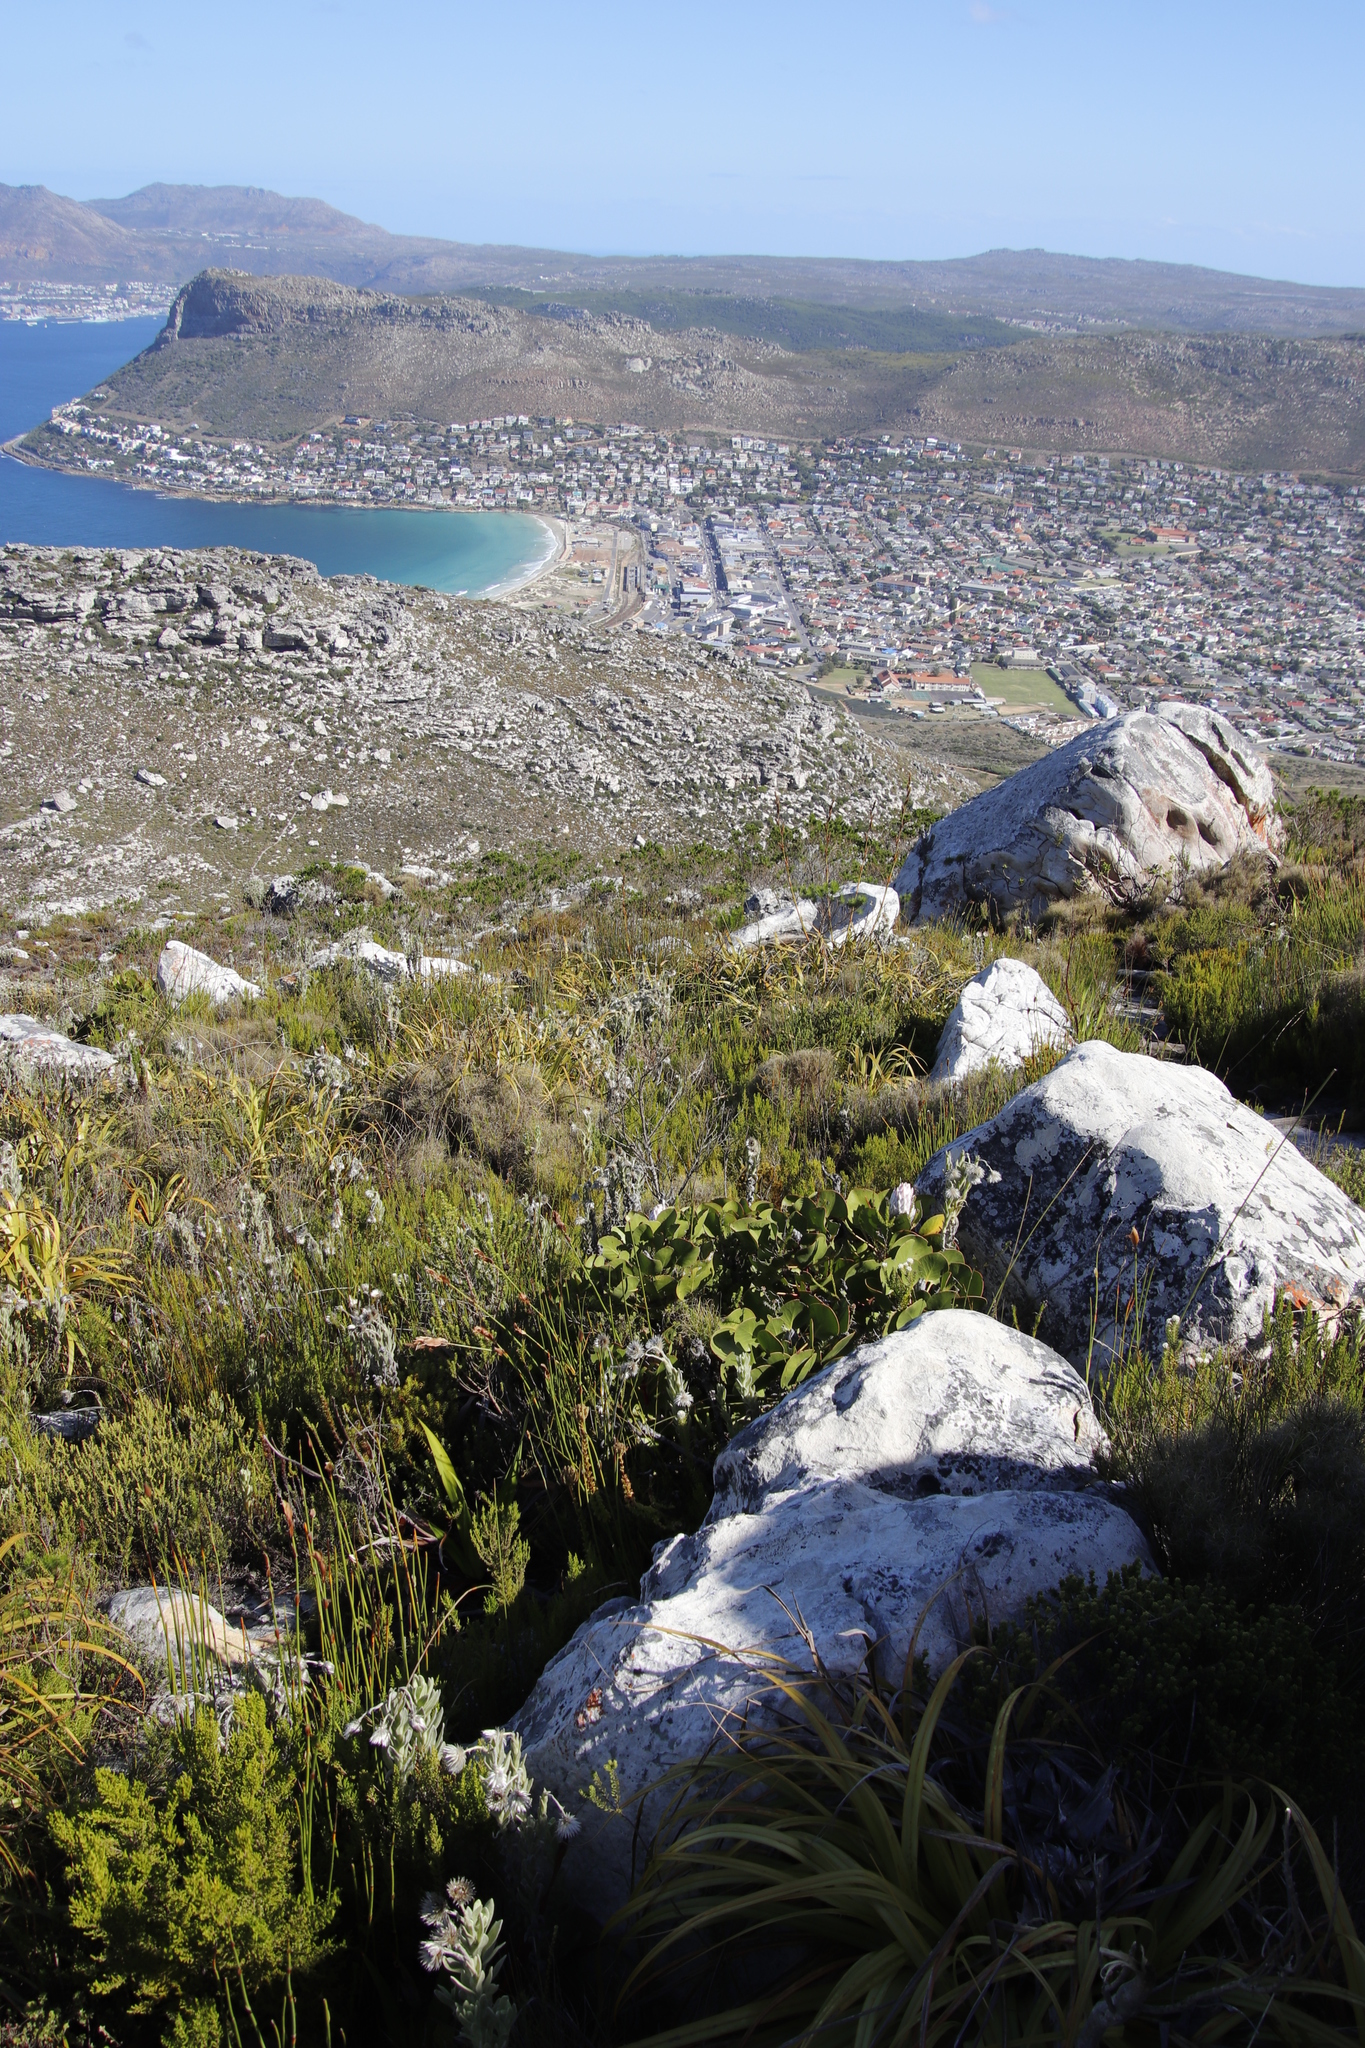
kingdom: Plantae
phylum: Tracheophyta
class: Magnoliopsida
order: Proteales
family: Proteaceae
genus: Protea
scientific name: Protea cynaroides
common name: King protea
